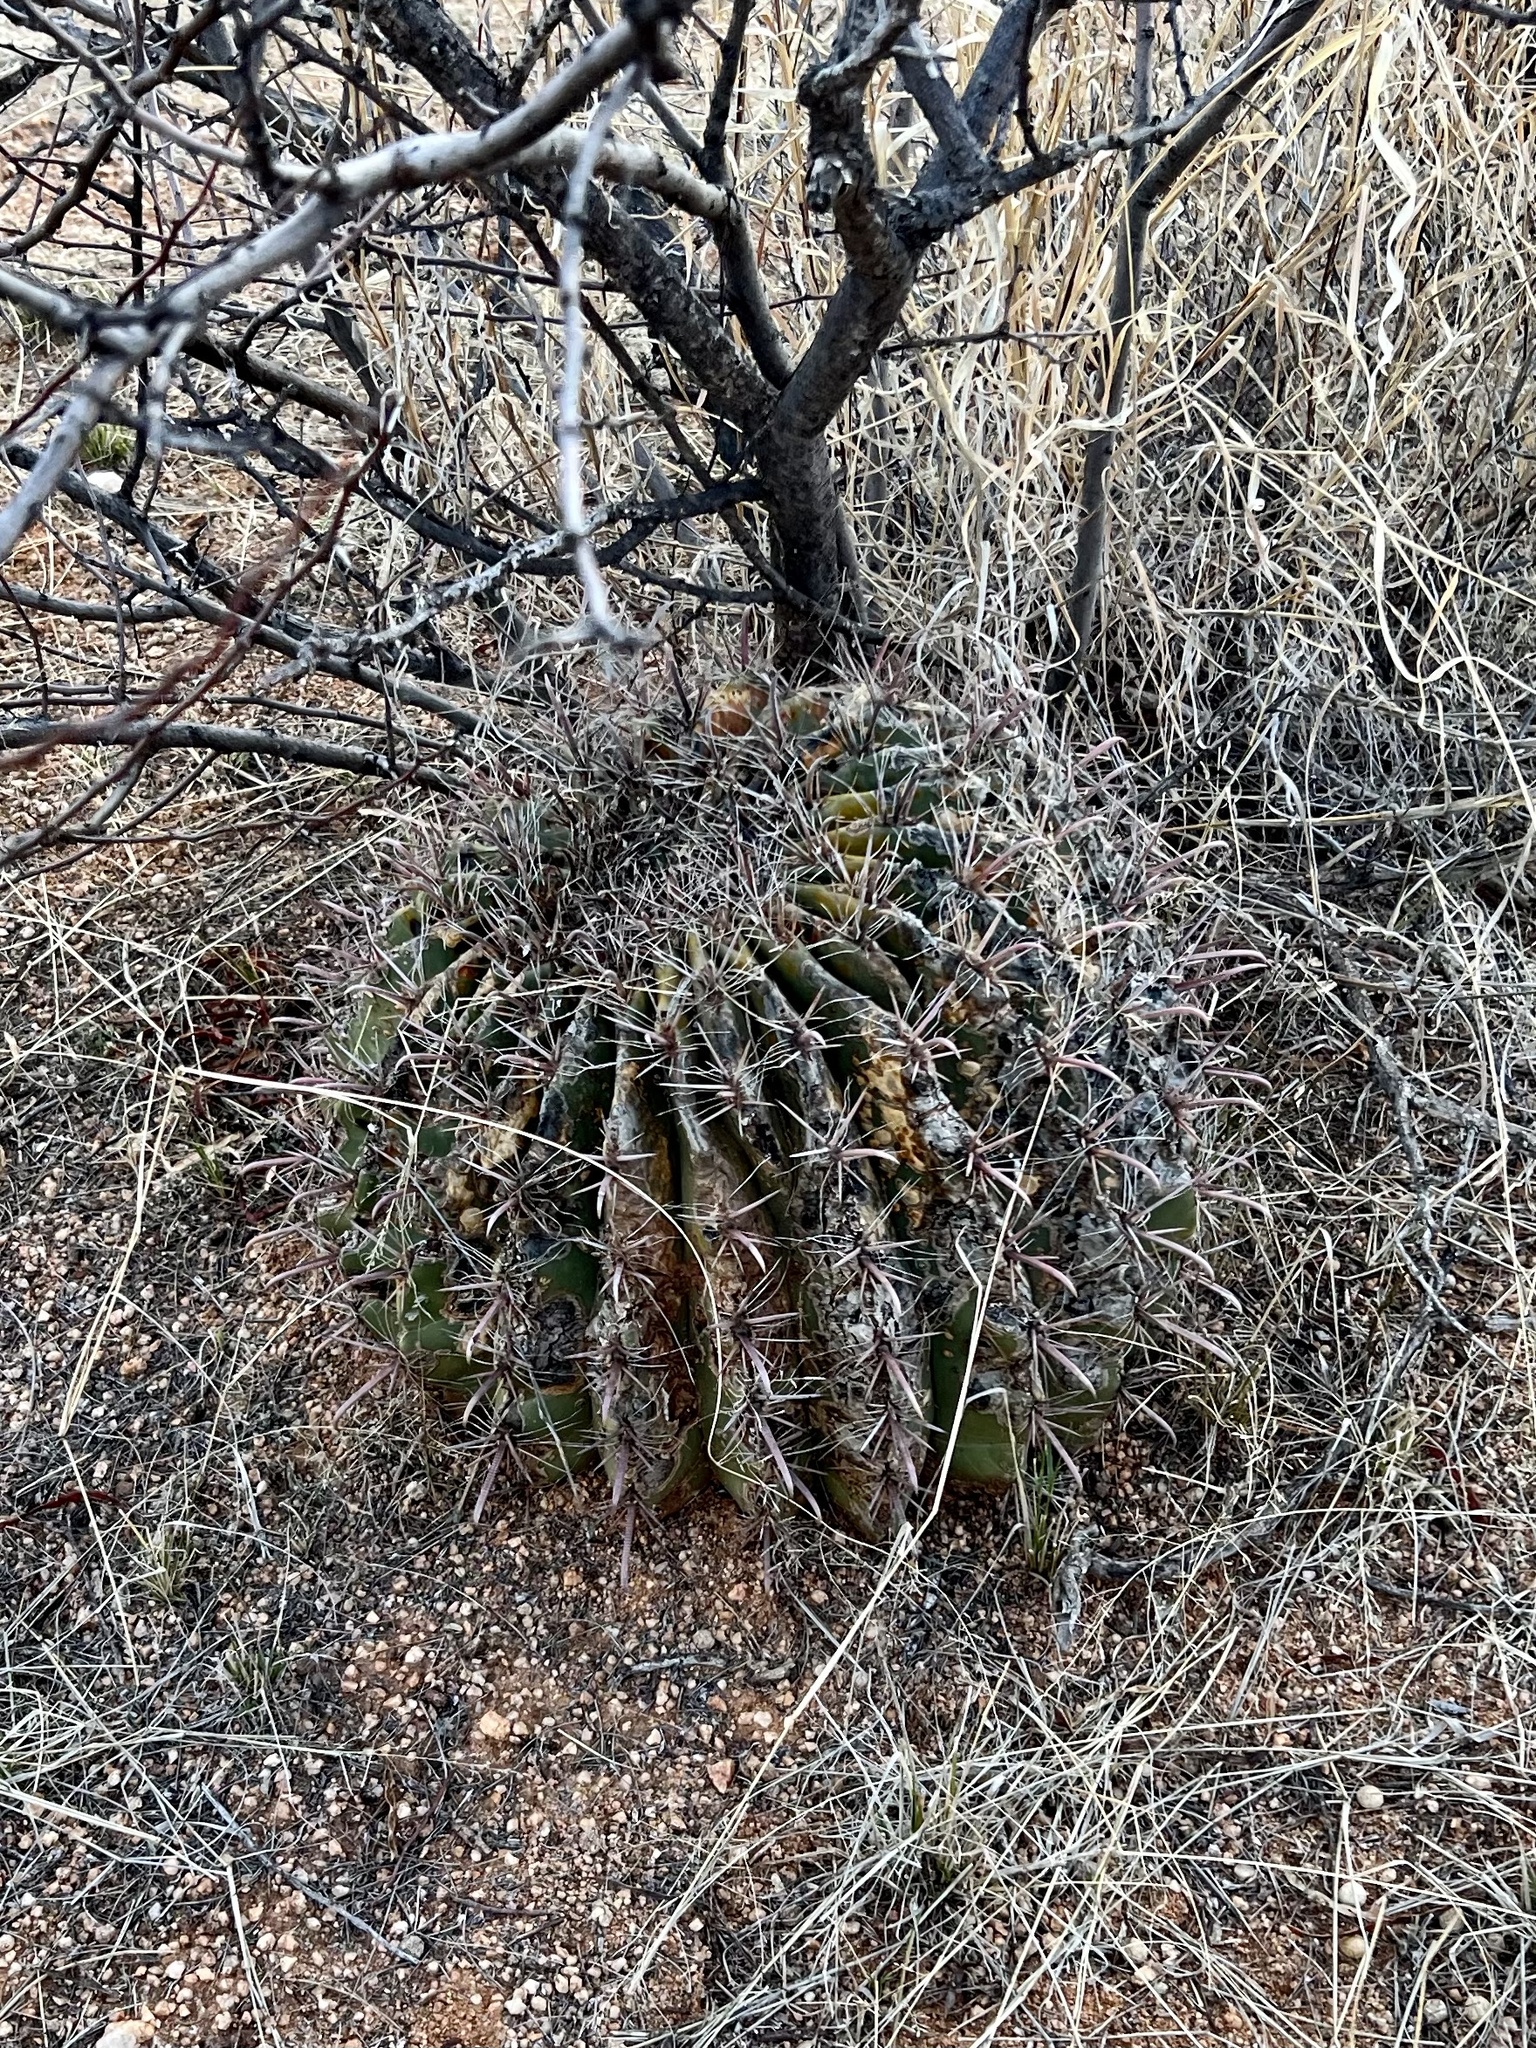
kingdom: Plantae
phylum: Tracheophyta
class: Magnoliopsida
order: Caryophyllales
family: Cactaceae
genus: Ferocactus
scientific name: Ferocactus wislizeni
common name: Candy barrel cactus
